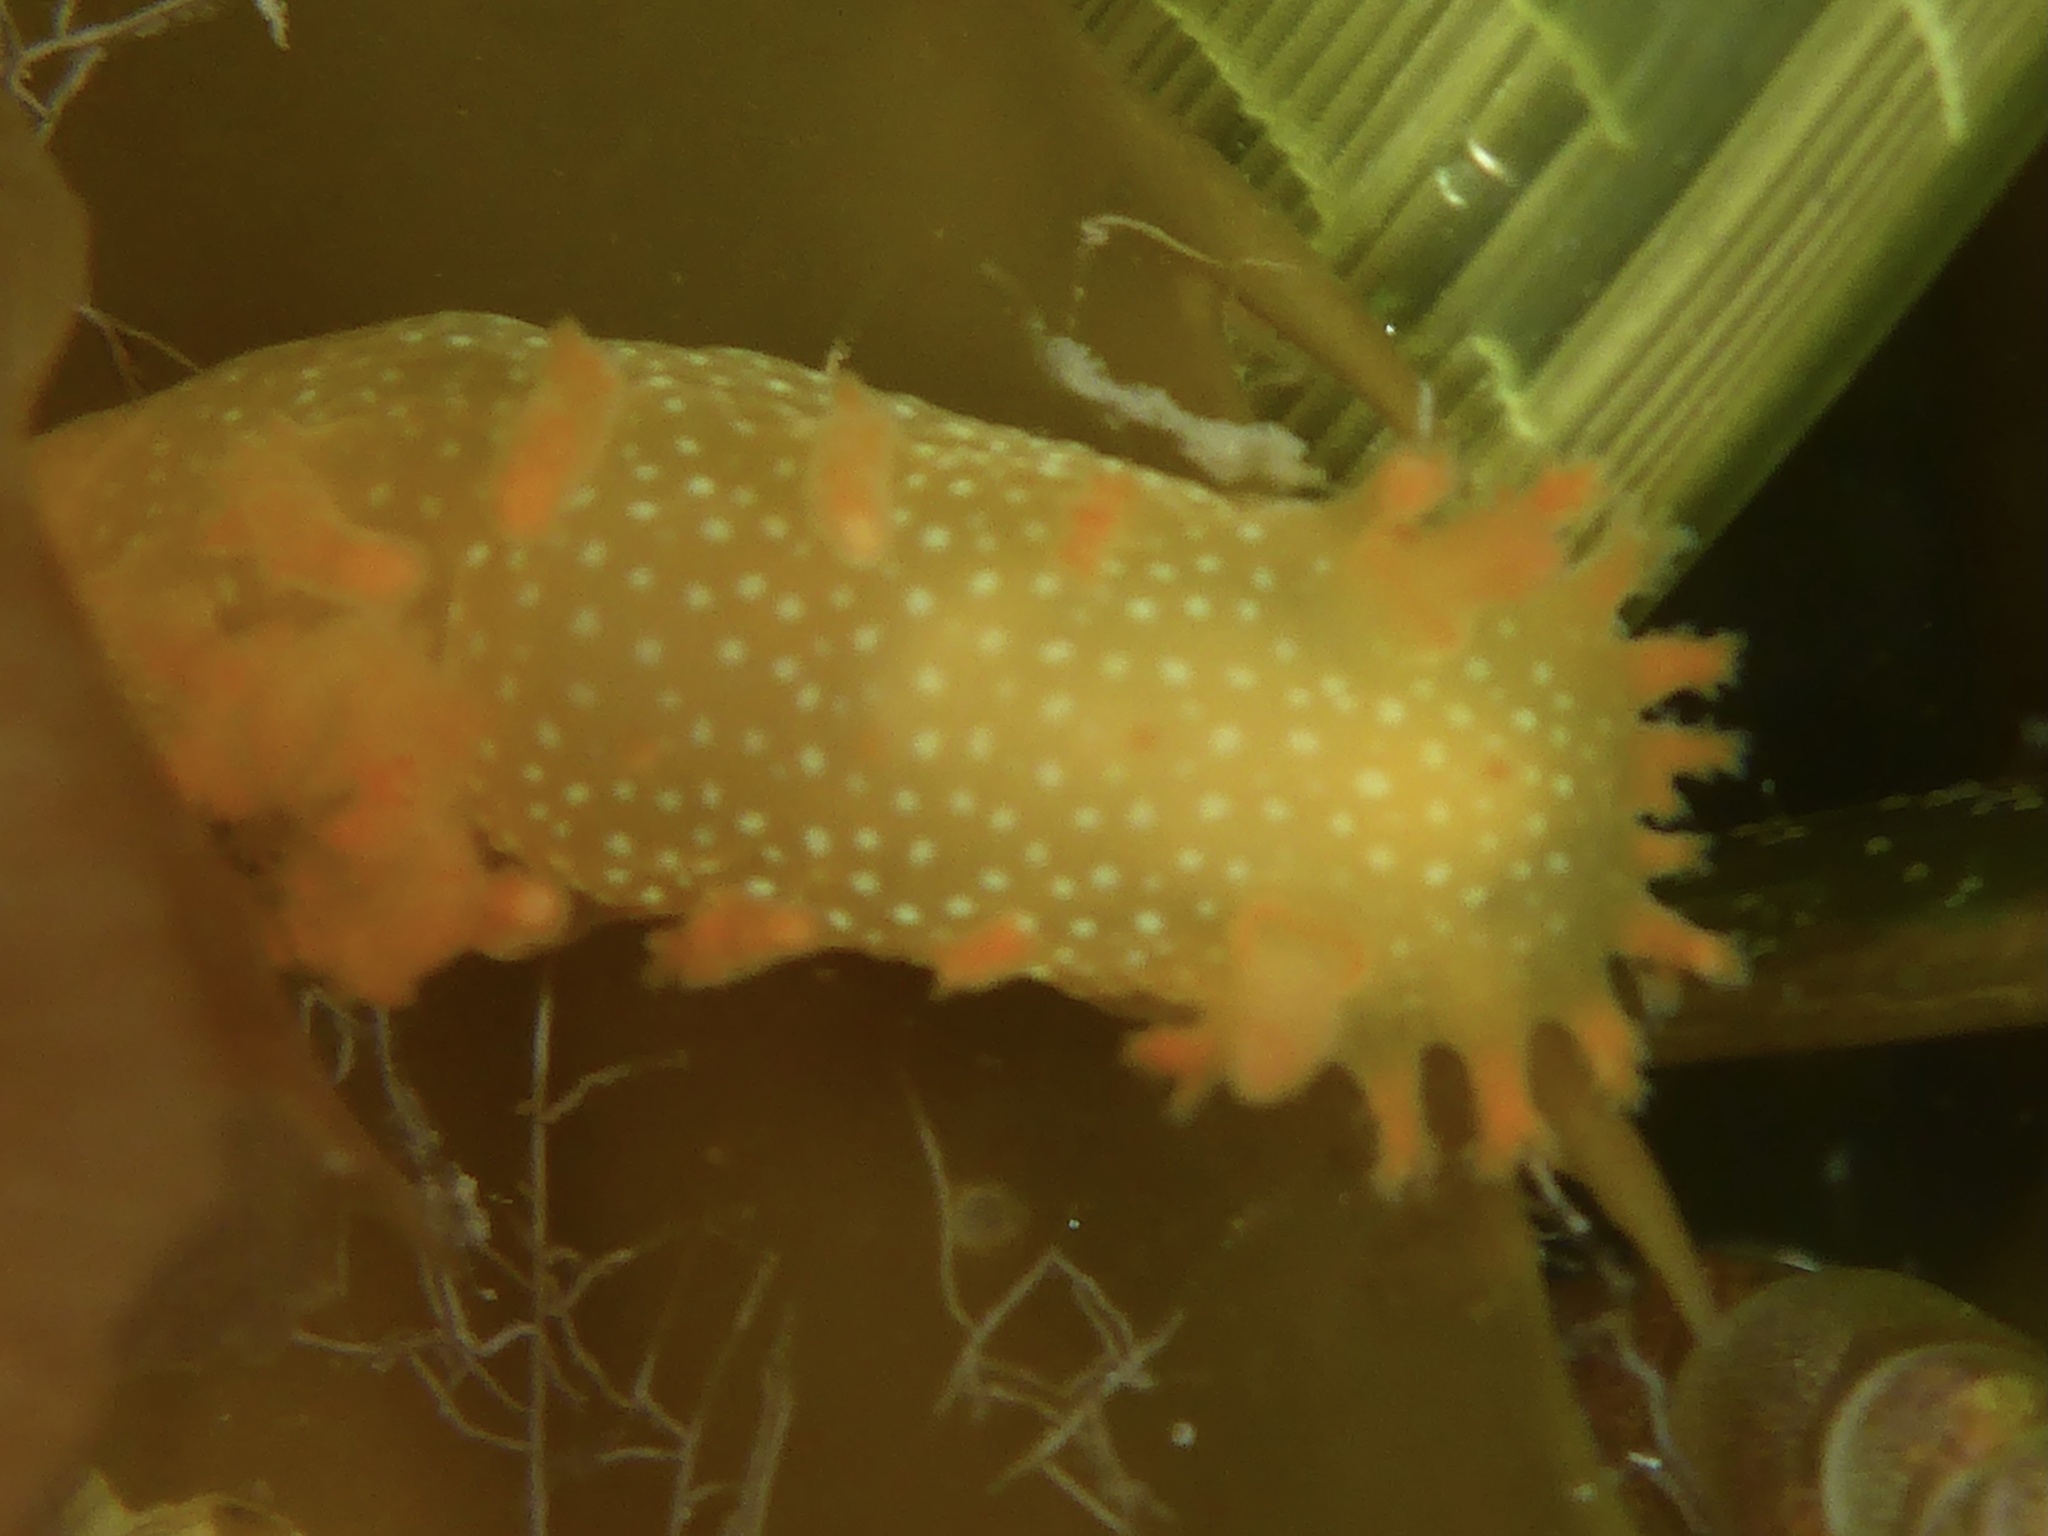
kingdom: Animalia
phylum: Mollusca
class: Gastropoda
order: Nudibranchia
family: Polyceridae
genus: Triopha
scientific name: Triopha maculata
